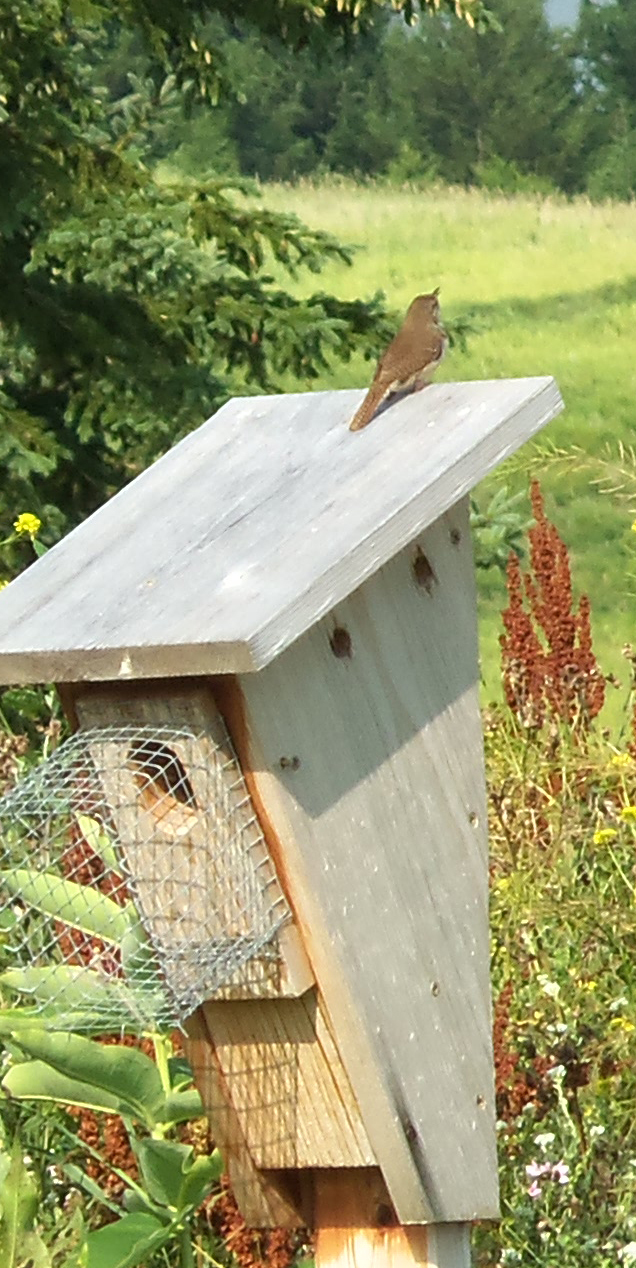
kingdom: Animalia
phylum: Chordata
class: Aves
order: Passeriformes
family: Troglodytidae
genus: Troglodytes
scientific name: Troglodytes aedon
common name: House wren
